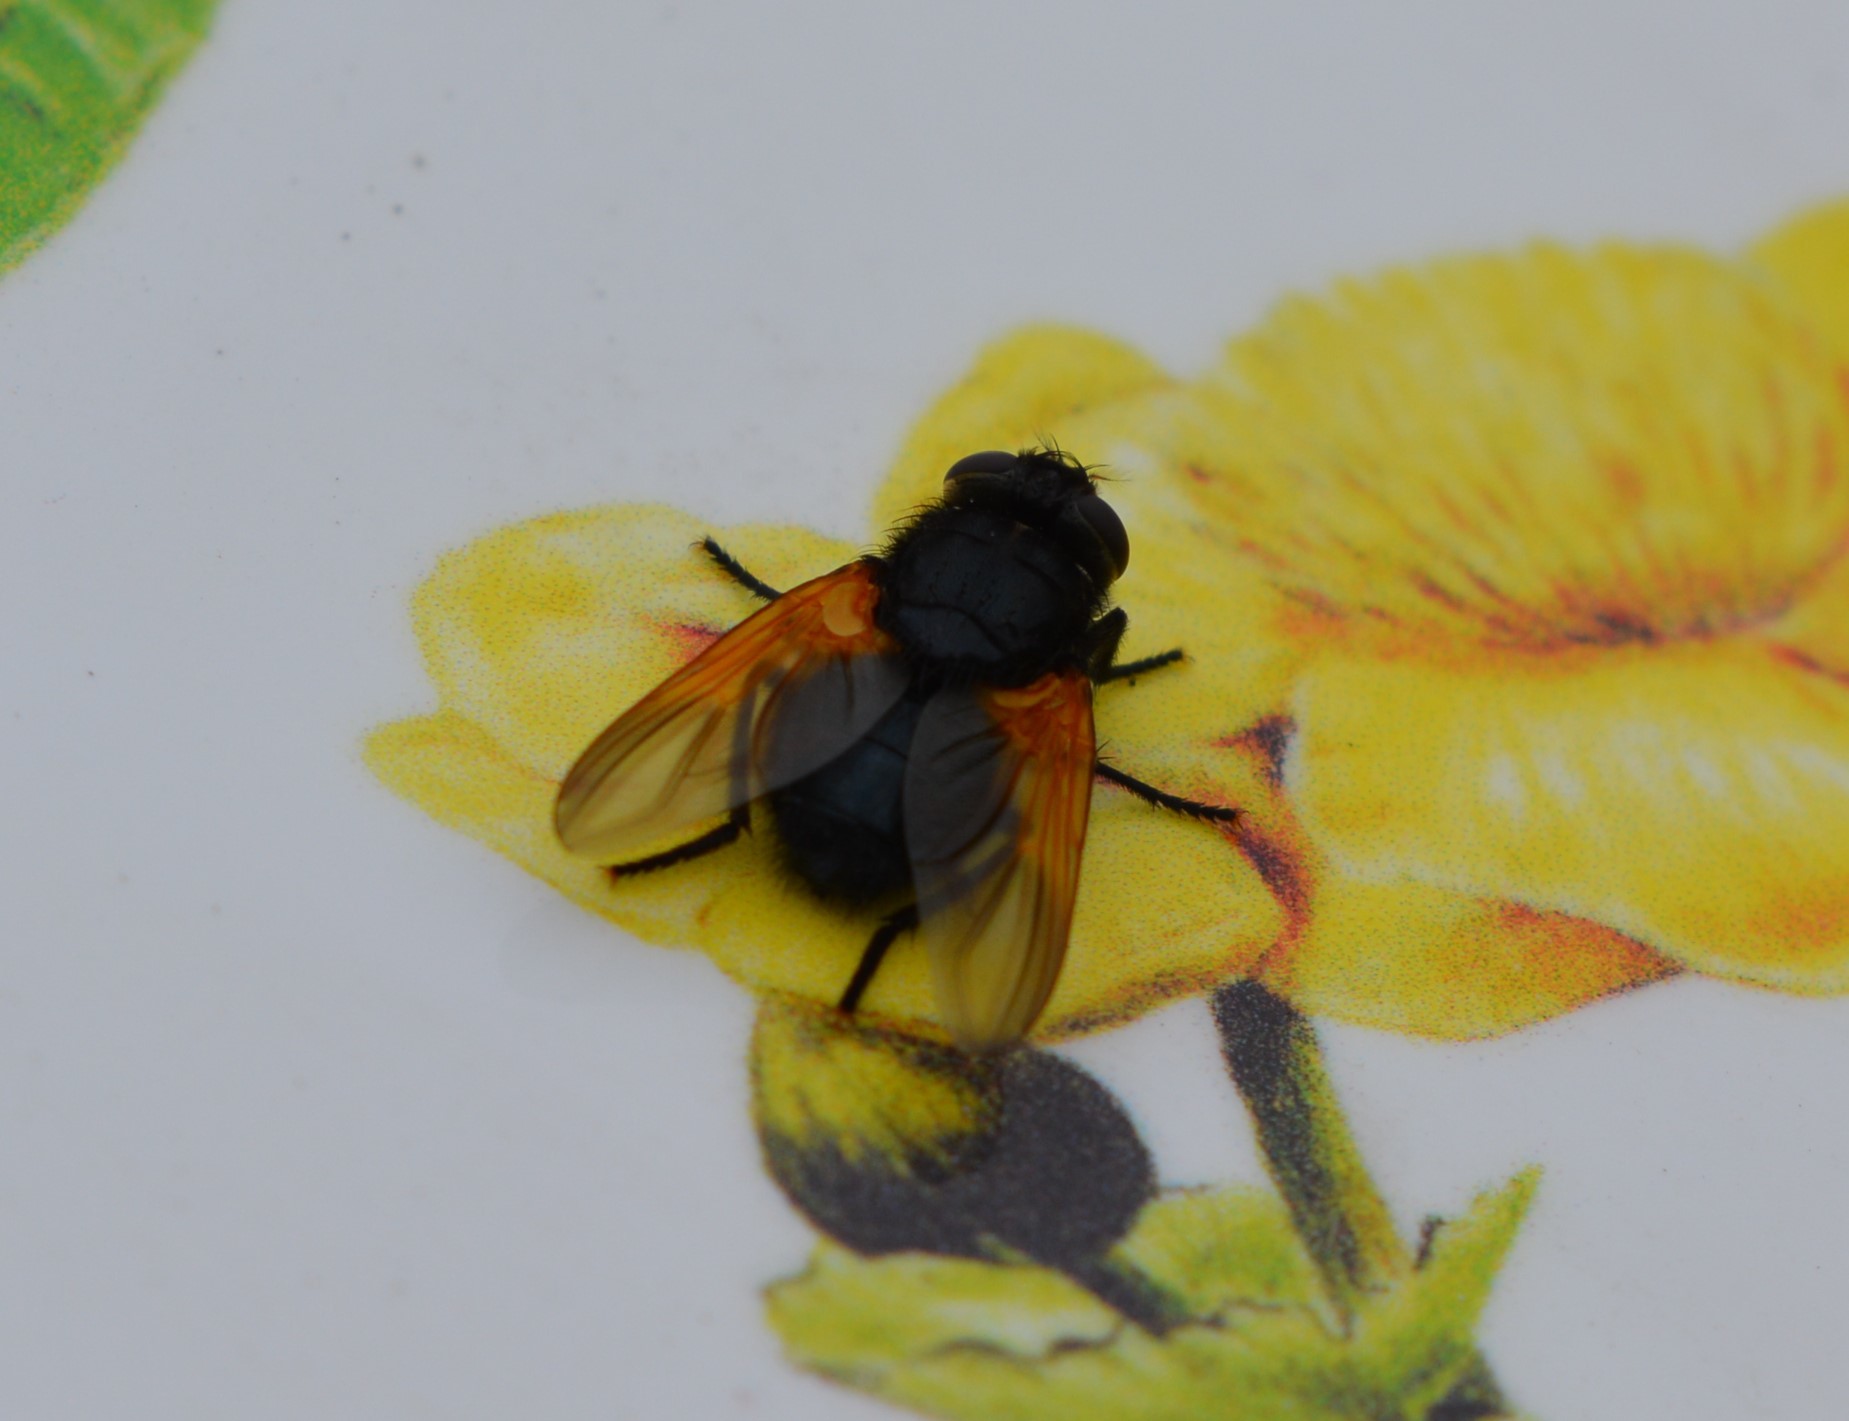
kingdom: Animalia
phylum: Arthropoda
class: Insecta
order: Diptera
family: Muscidae
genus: Mesembrina
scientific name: Mesembrina meridiana
